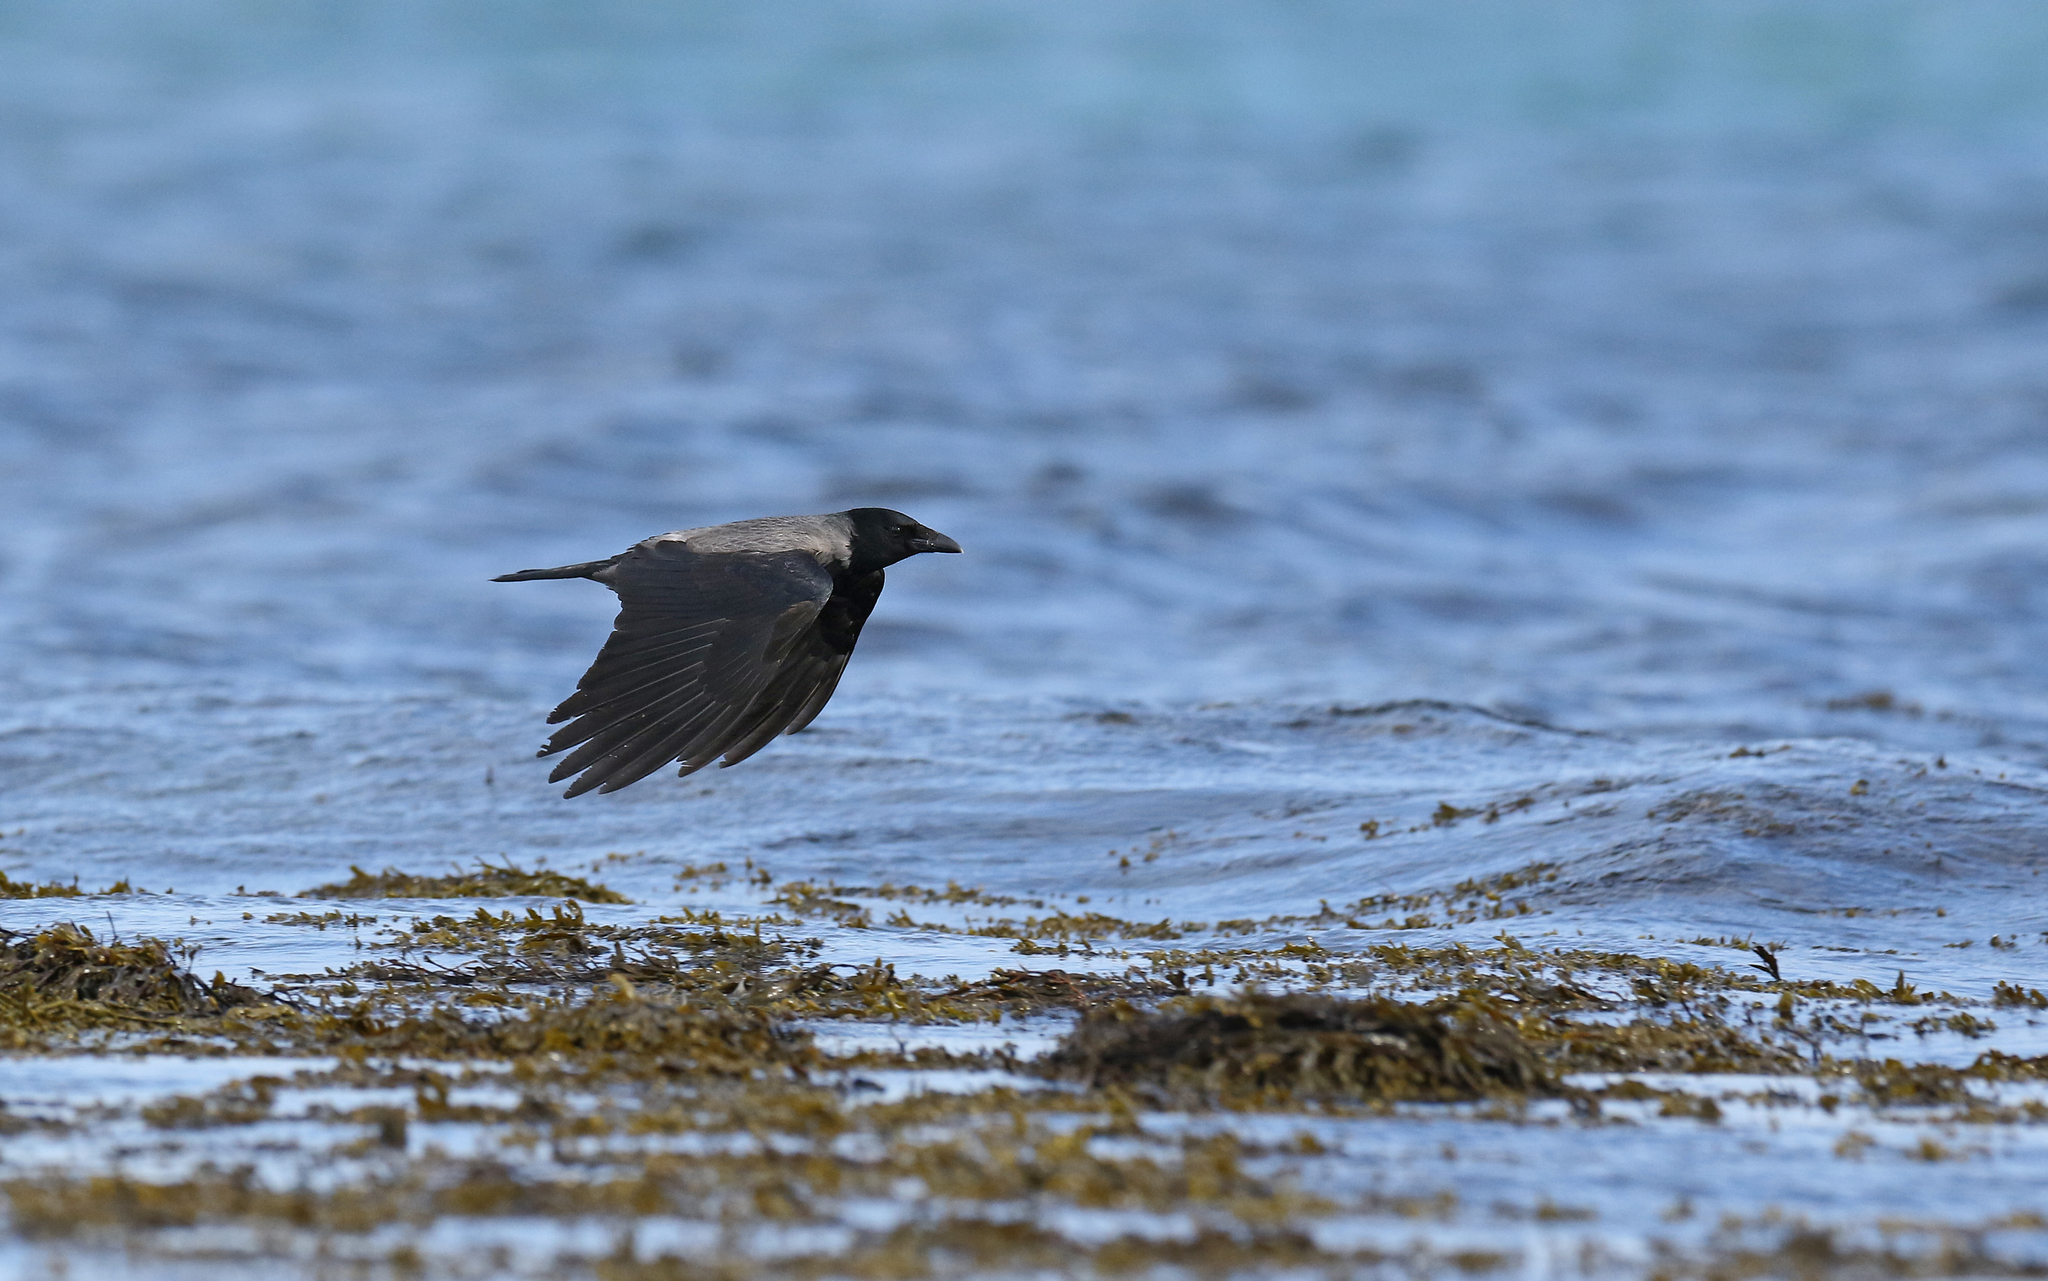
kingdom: Animalia
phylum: Chordata
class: Aves
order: Passeriformes
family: Corvidae
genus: Corvus
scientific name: Corvus cornix
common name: Hooded crow
